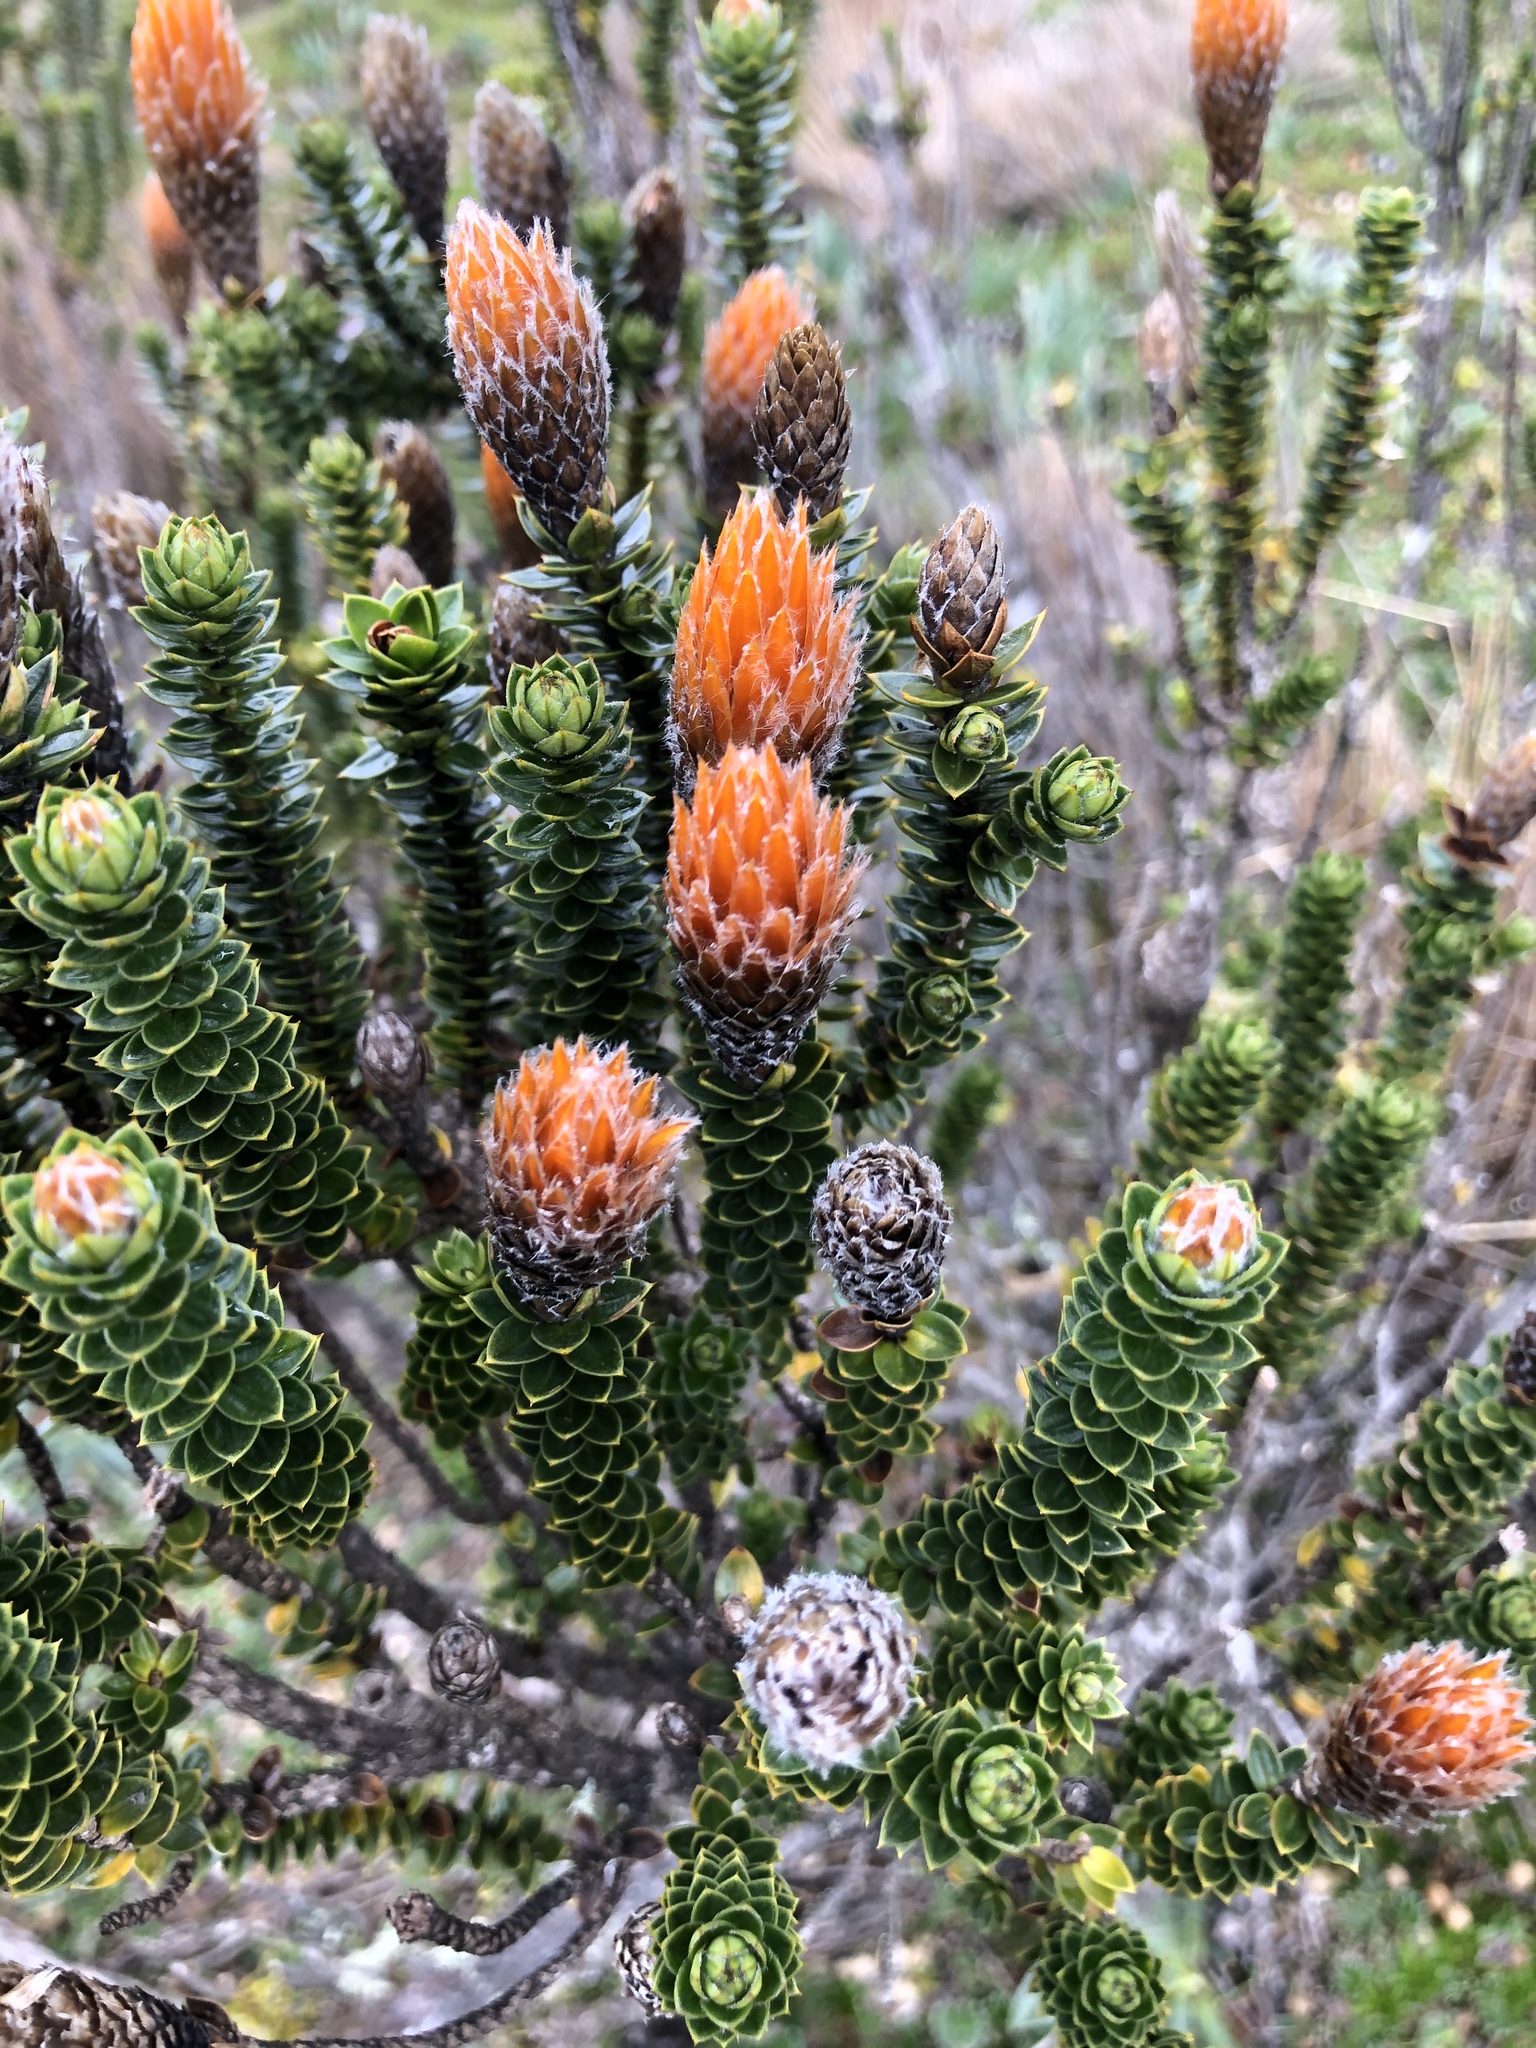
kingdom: Plantae
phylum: Tracheophyta
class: Magnoliopsida
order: Asterales
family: Asteraceae
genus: Chuquiraga
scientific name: Chuquiraga jussieui
